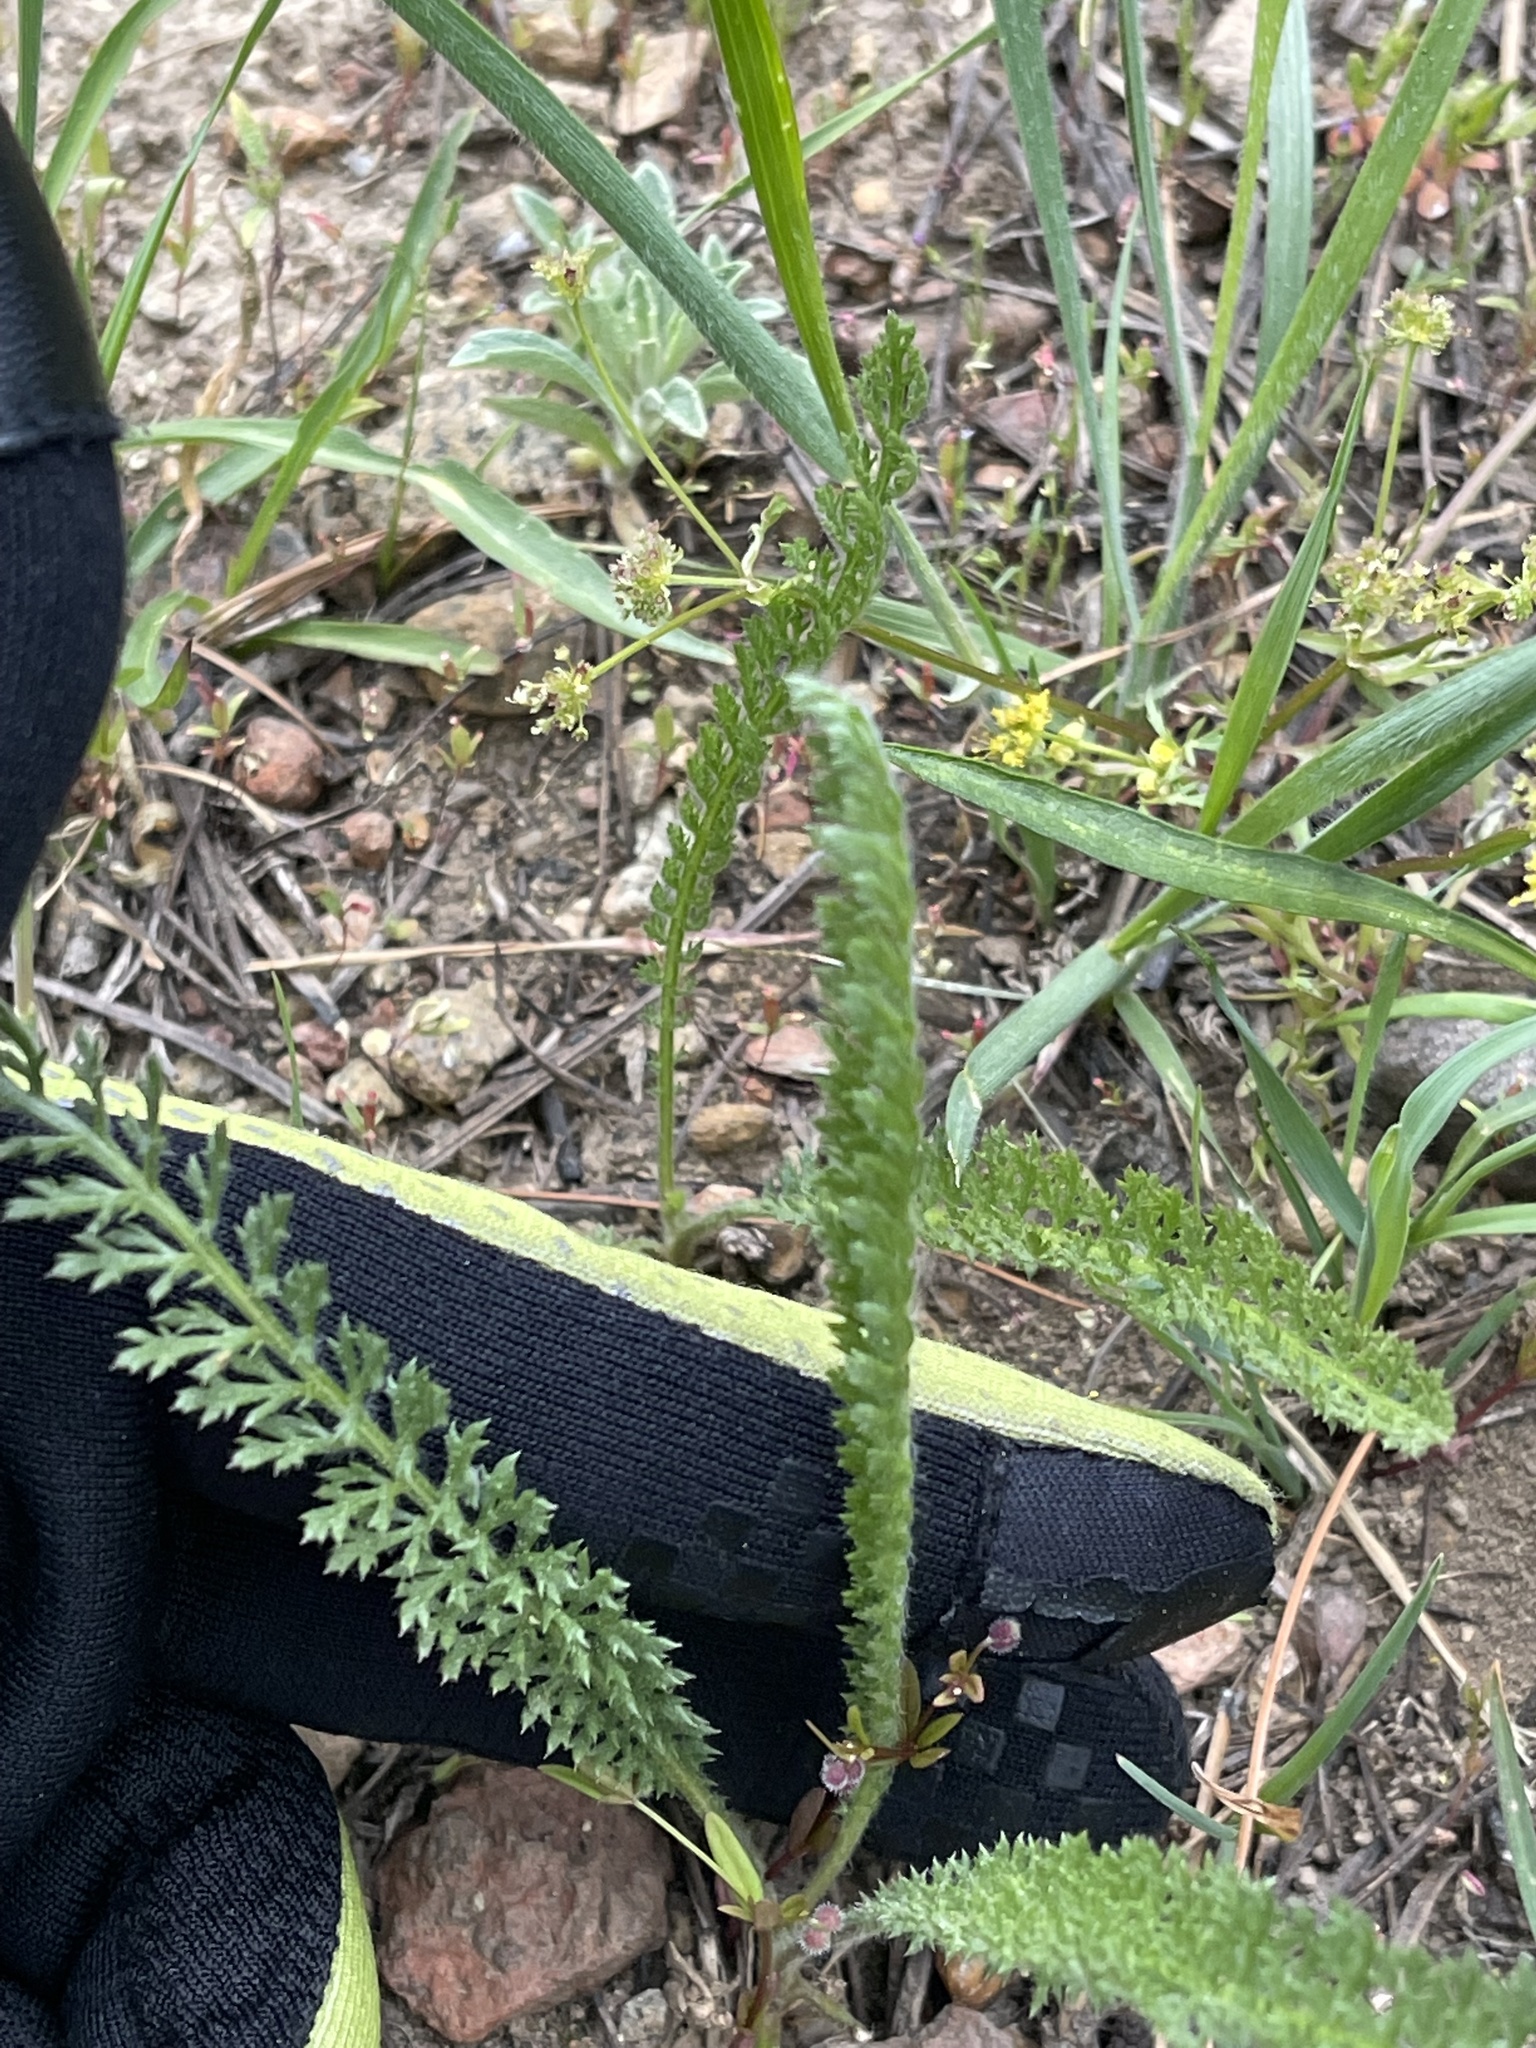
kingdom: Plantae
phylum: Tracheophyta
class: Magnoliopsida
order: Asterales
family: Asteraceae
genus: Achillea
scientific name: Achillea millefolium
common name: Yarrow
